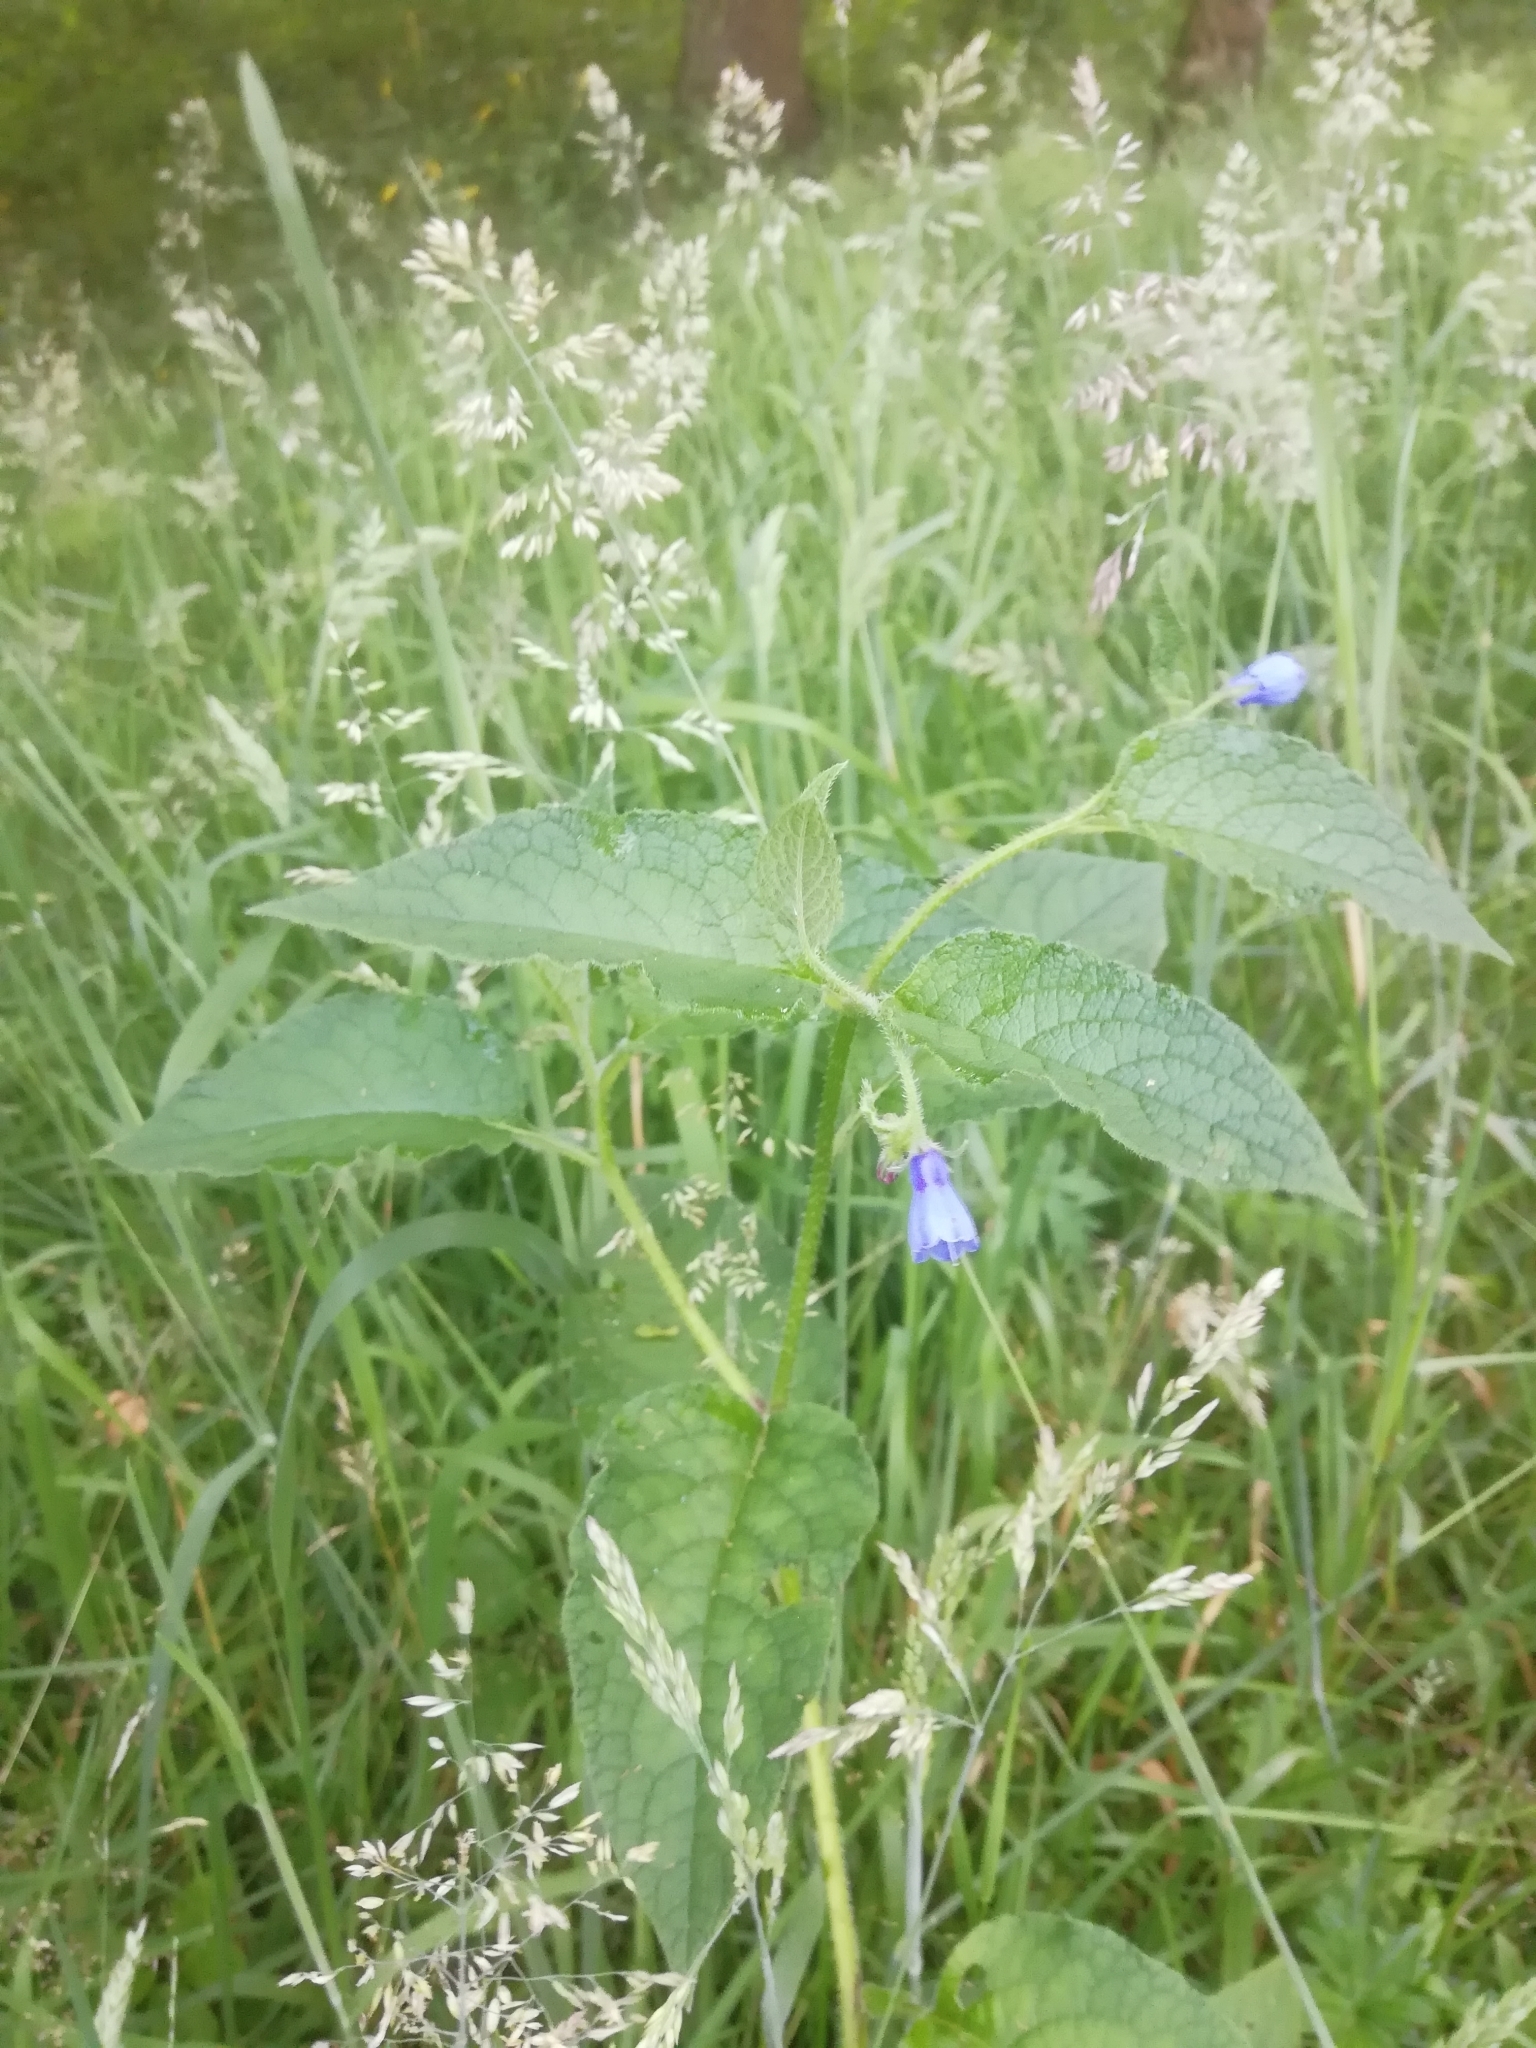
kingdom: Plantae
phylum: Tracheophyta
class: Magnoliopsida
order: Boraginales
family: Boraginaceae
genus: Symphytum
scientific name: Symphytum asperum
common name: Prickly comfrey
